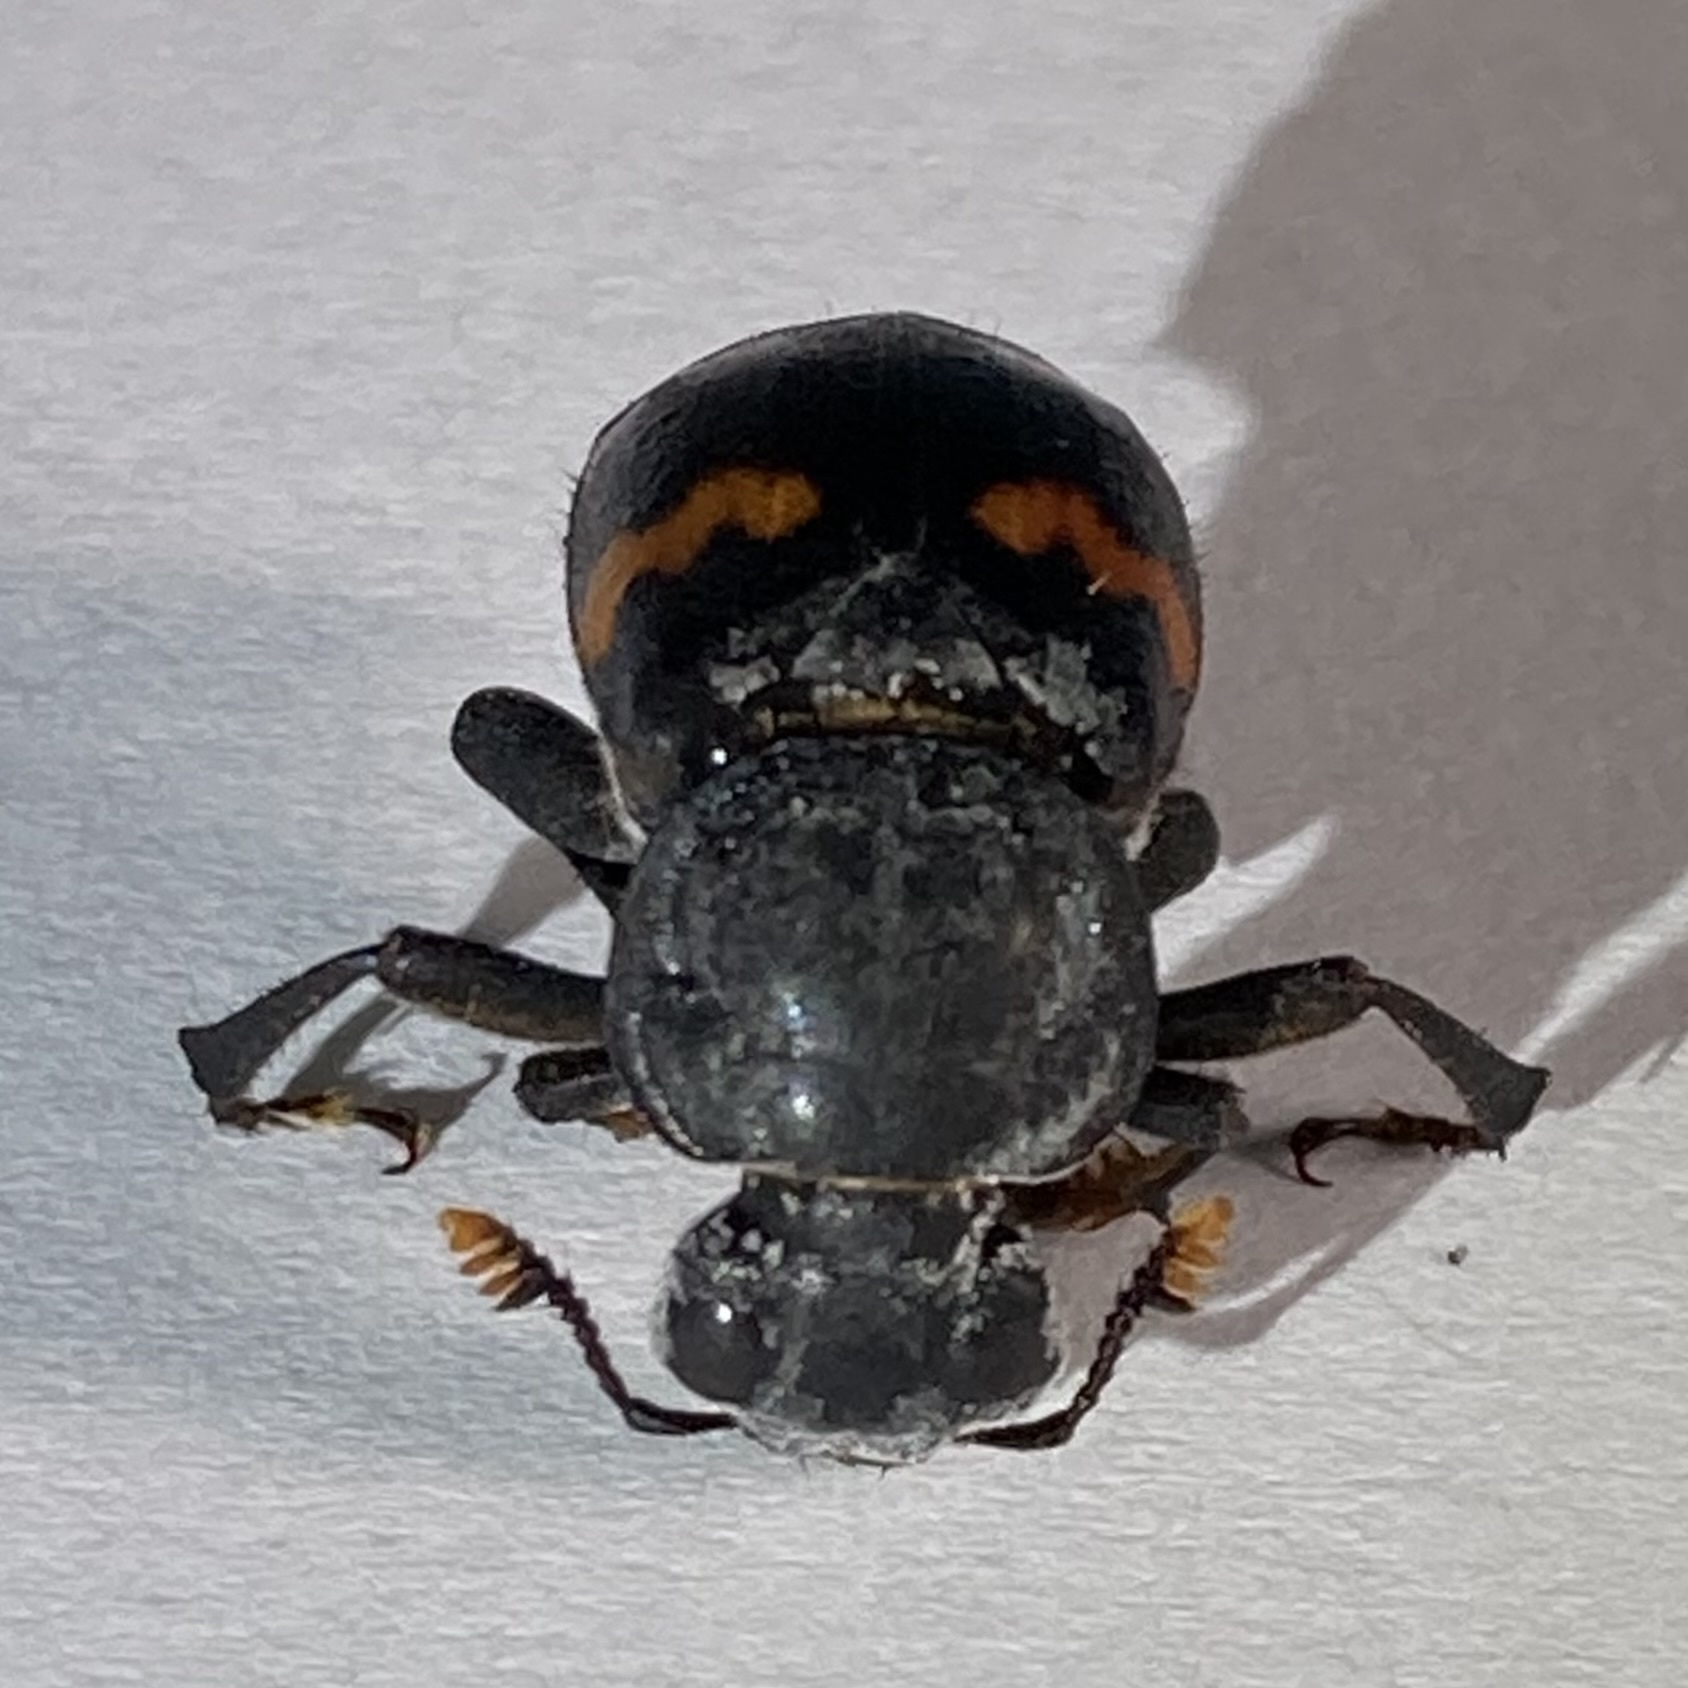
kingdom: Animalia
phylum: Arthropoda
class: Insecta
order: Coleoptera
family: Staphylinidae
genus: Nicrophorus
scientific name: Nicrophorus orbicollis
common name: Roundneck sexton beetle
